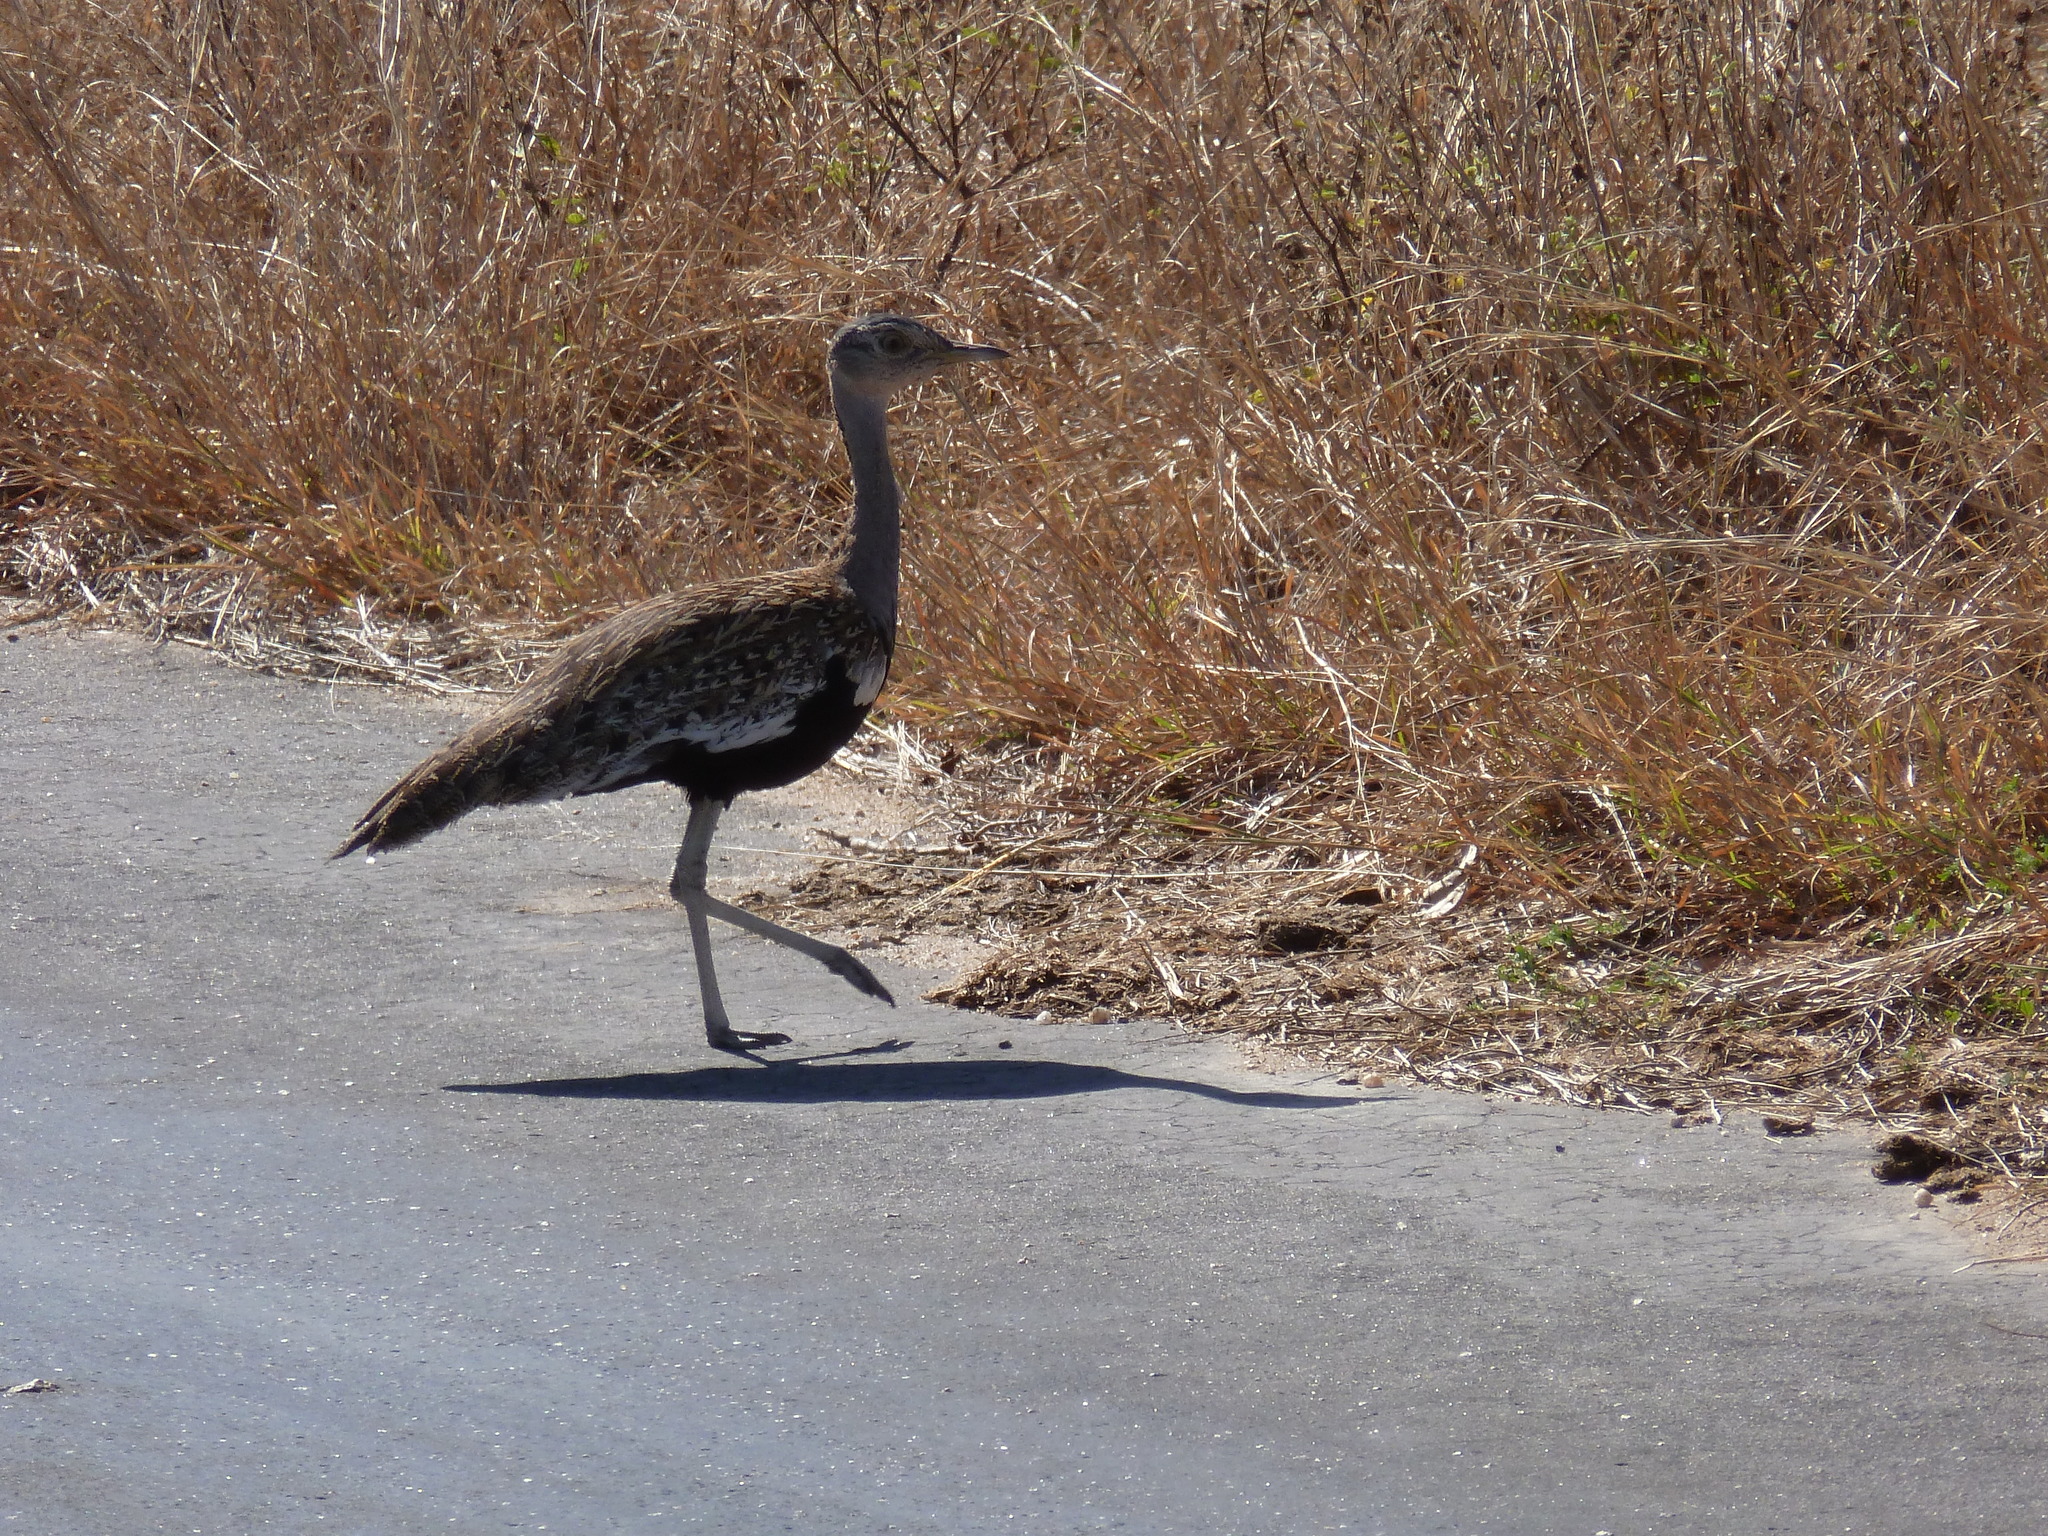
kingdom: Animalia
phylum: Chordata
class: Aves
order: Otidiformes
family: Otididae
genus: Lophotis
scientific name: Lophotis ruficrista
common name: Red-crested korhaan
